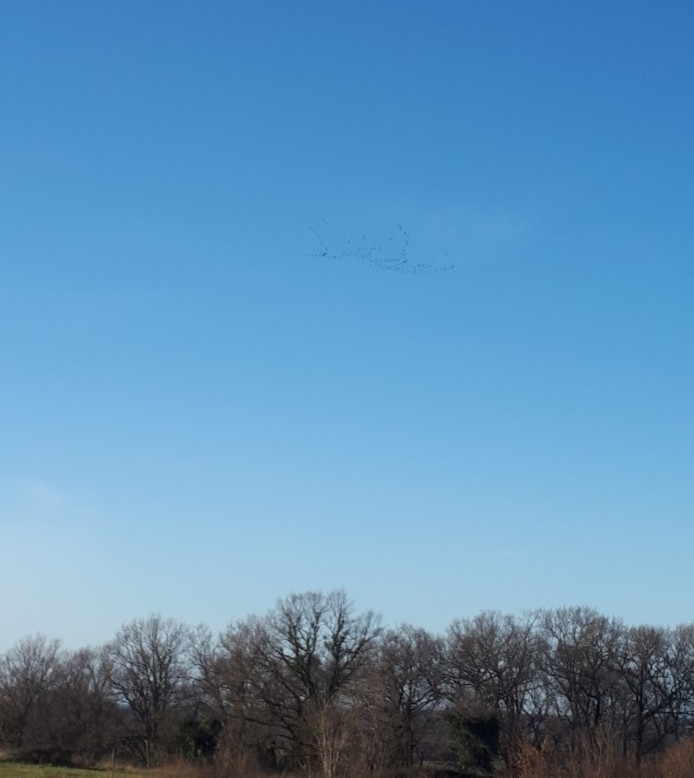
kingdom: Animalia
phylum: Chordata
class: Aves
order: Gruiformes
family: Gruidae
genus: Grus
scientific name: Grus grus
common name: Common crane
